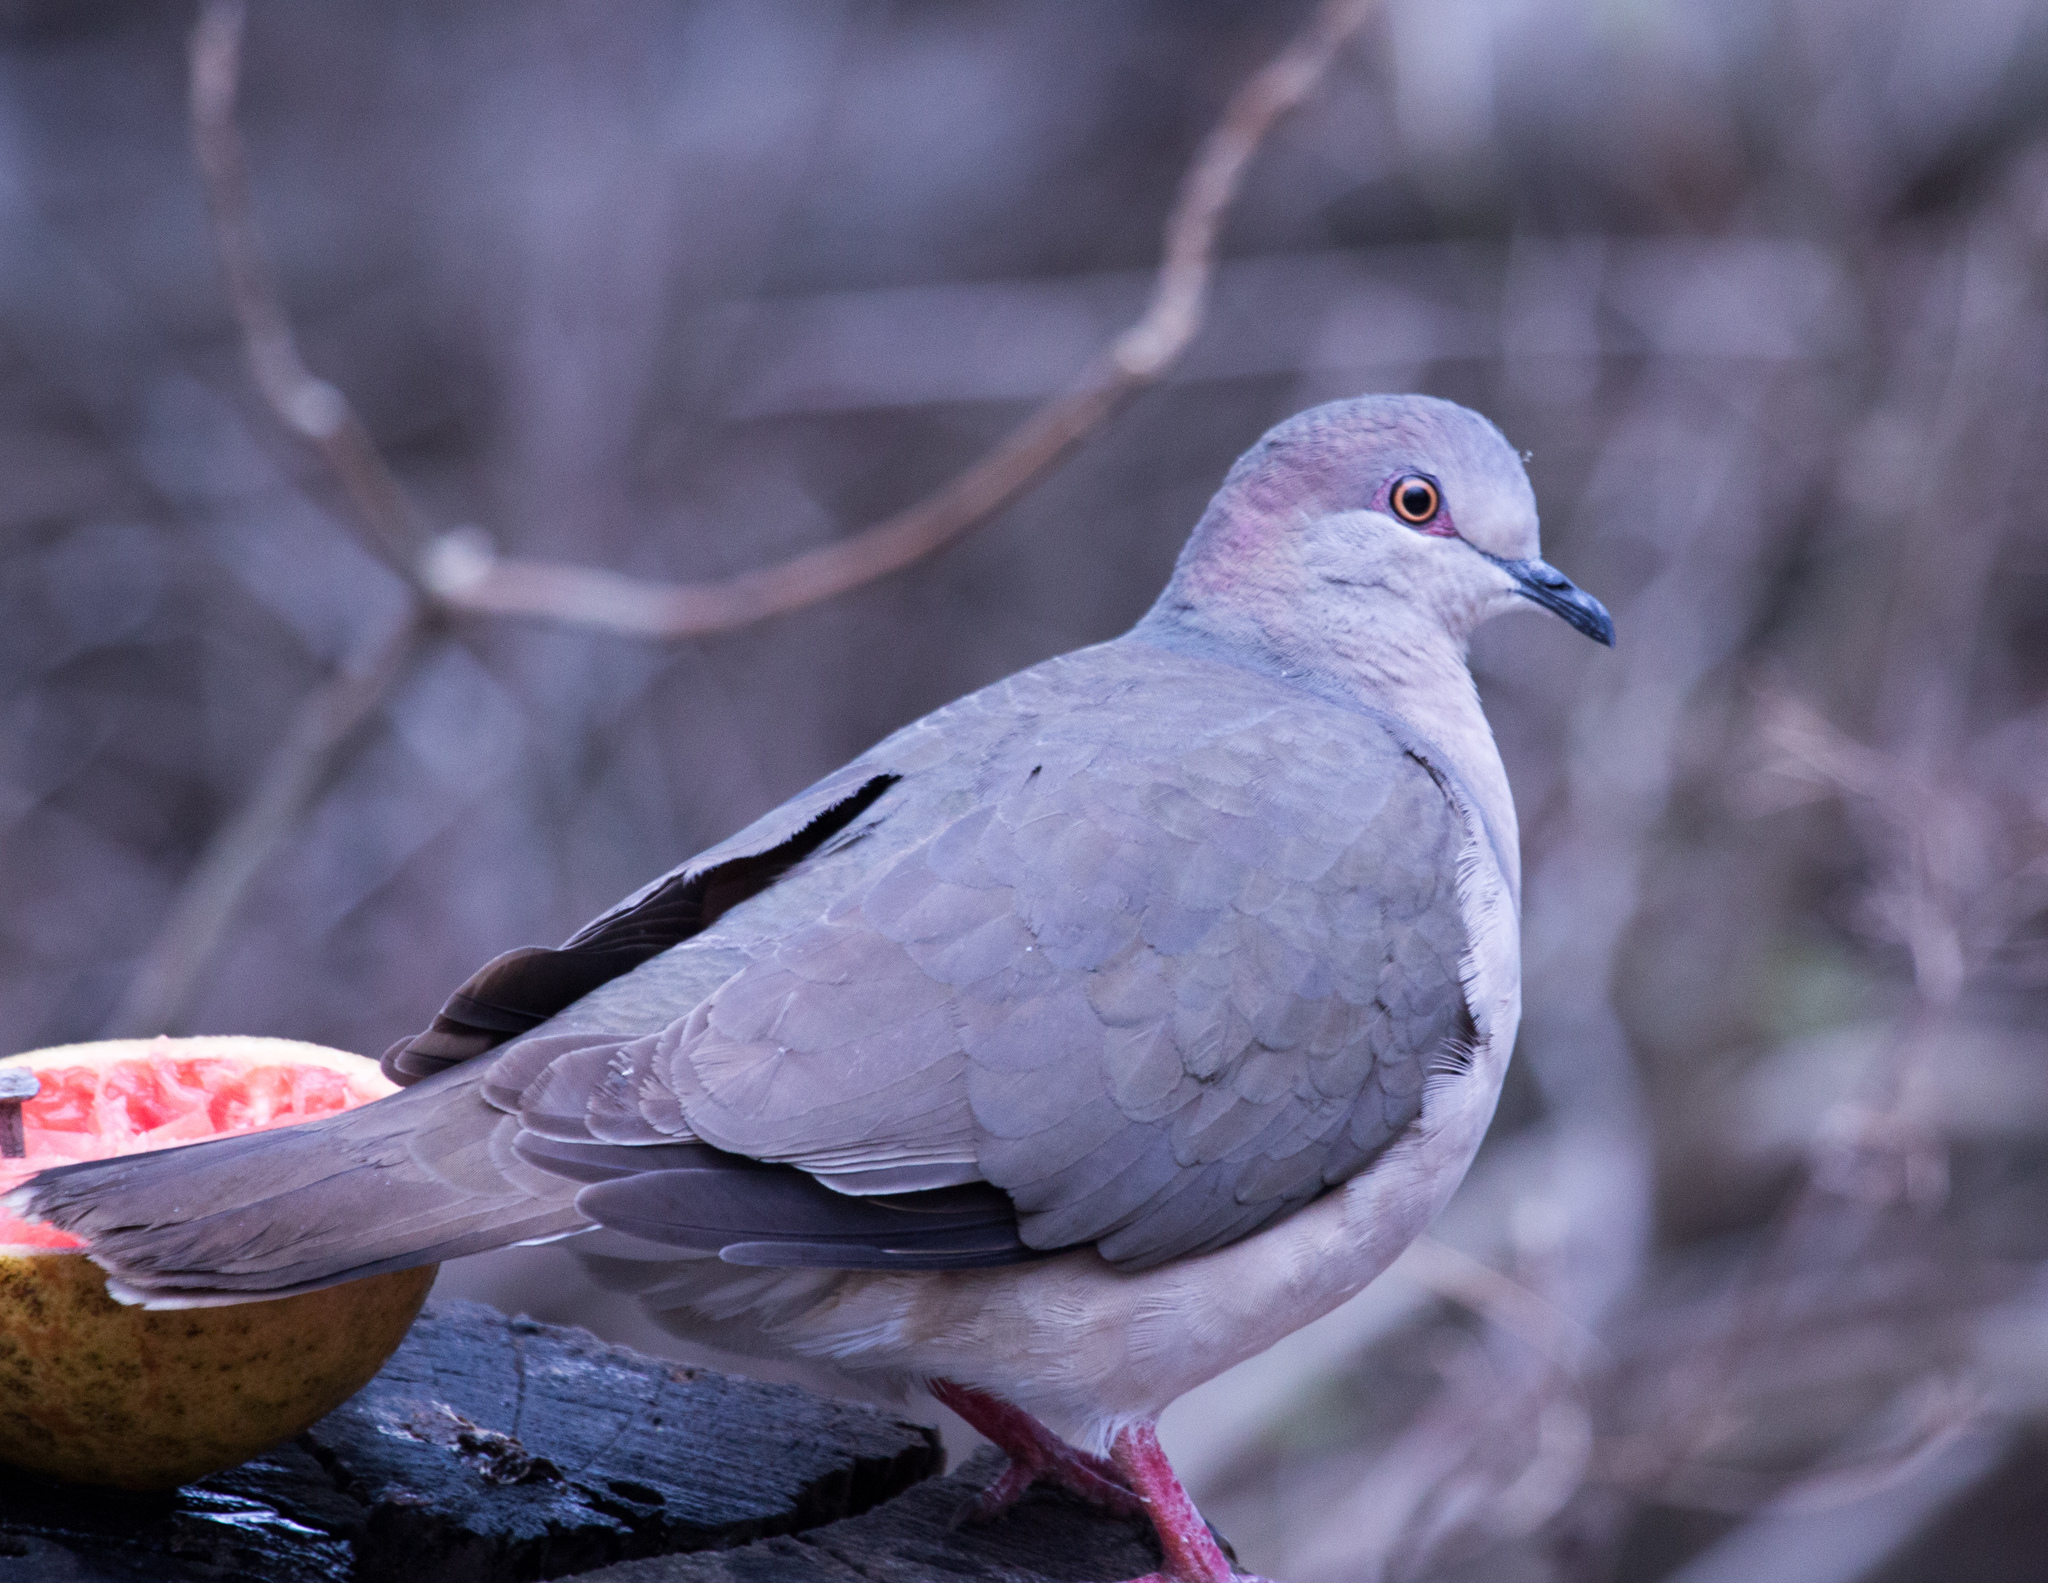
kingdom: Animalia
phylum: Chordata
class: Aves
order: Columbiformes
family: Columbidae
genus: Leptotila
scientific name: Leptotila verreauxi
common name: White-tipped dove
